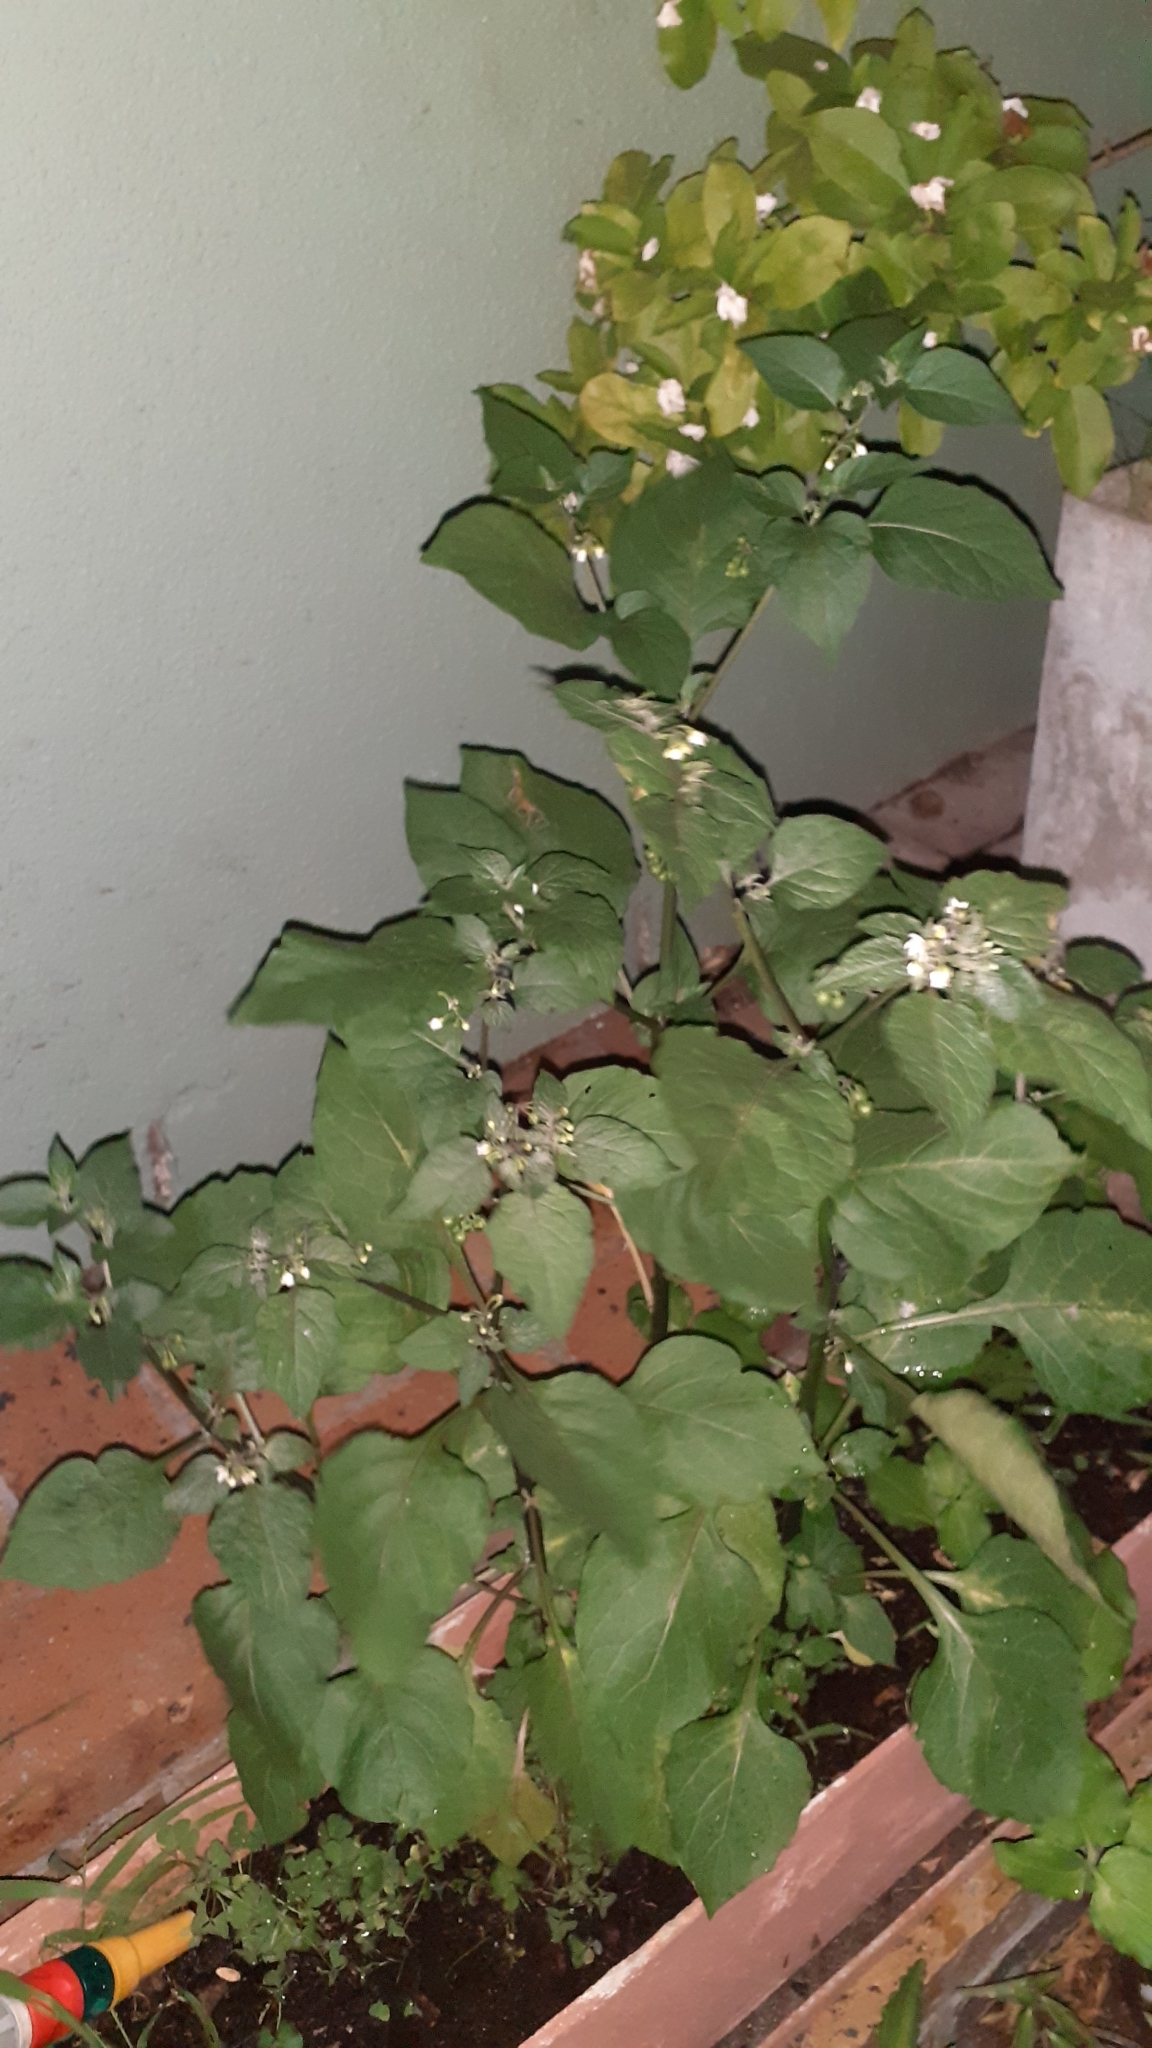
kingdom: Plantae
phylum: Tracheophyta
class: Magnoliopsida
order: Solanales
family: Solanaceae
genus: Solanum
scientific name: Solanum nigrum
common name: Black nightshade
